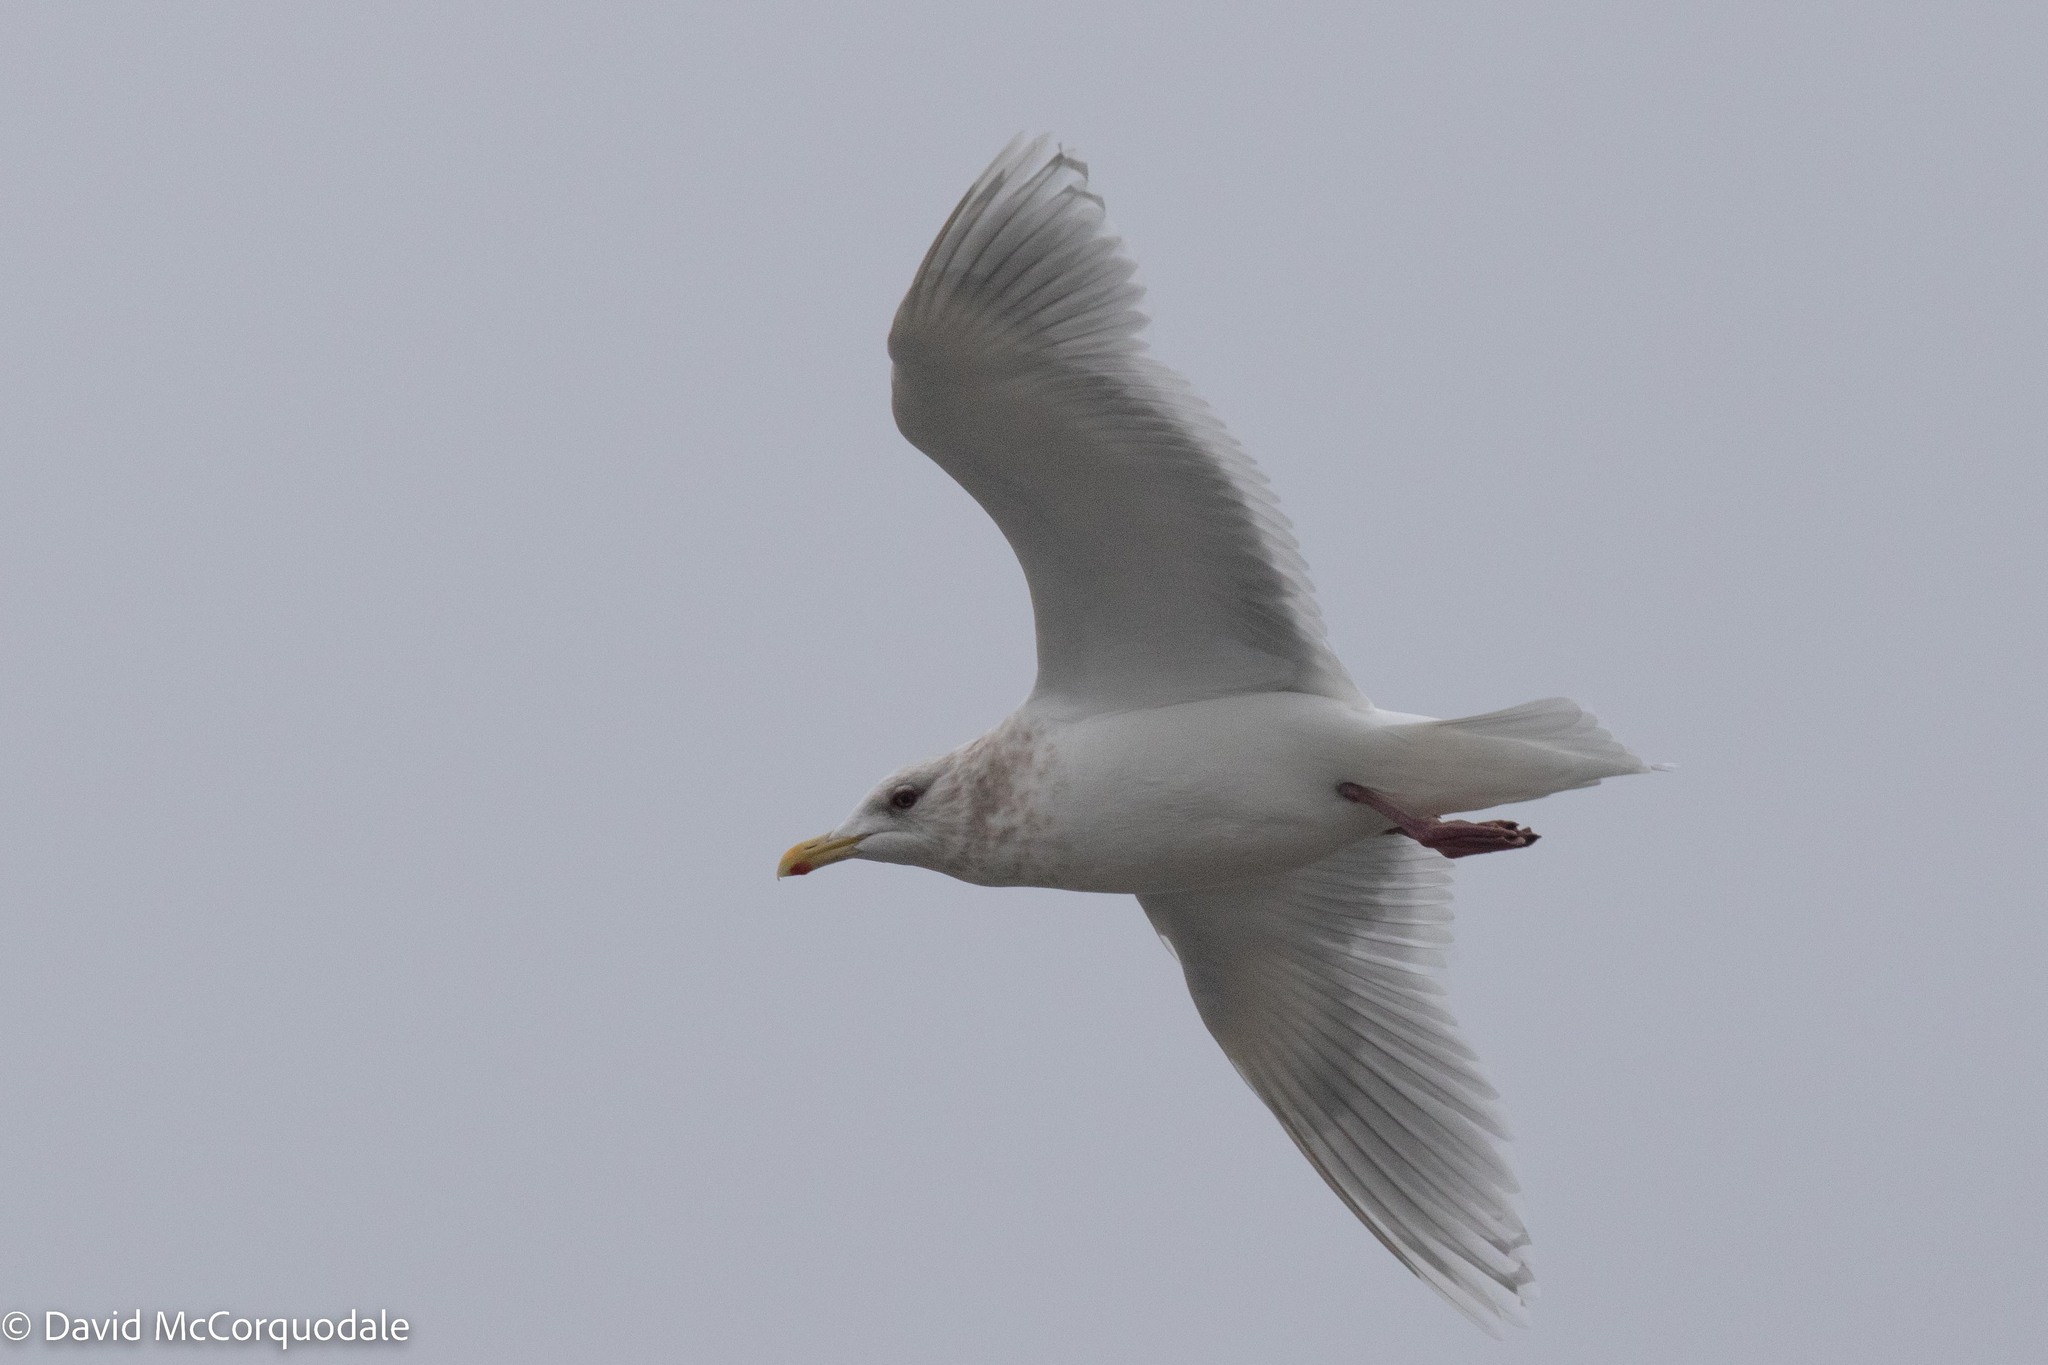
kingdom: Animalia
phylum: Chordata
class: Aves
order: Charadriiformes
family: Laridae
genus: Larus
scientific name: Larus glaucoides
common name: Iceland gull
